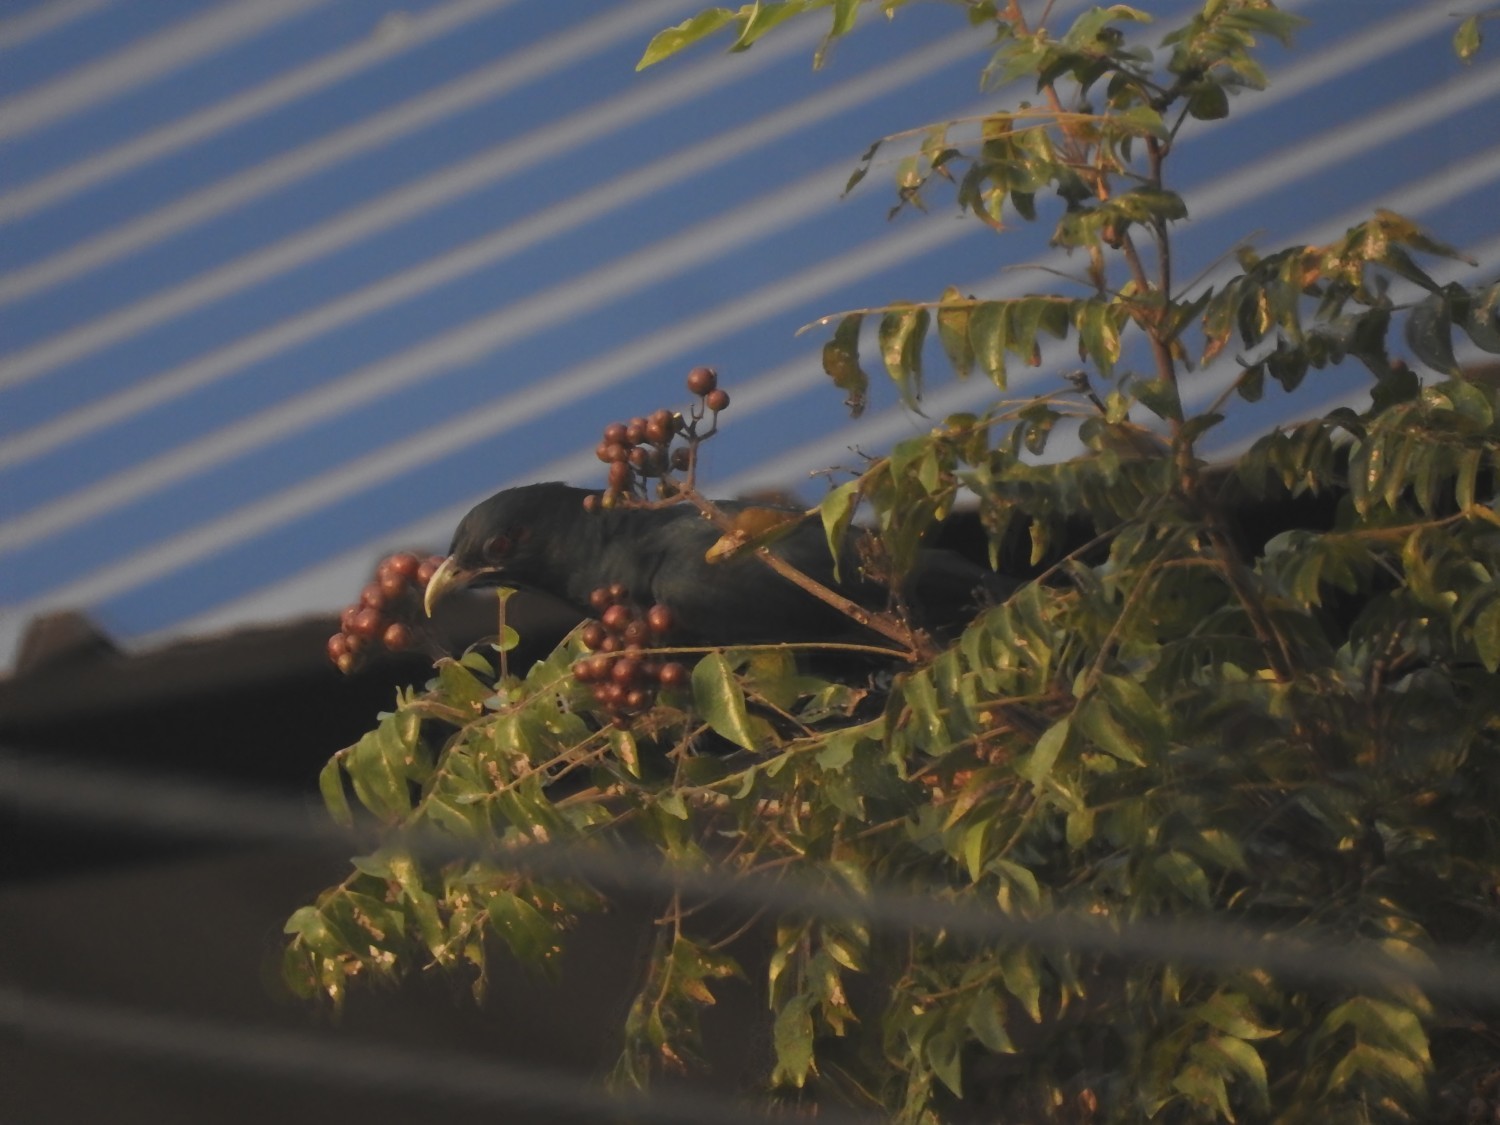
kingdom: Animalia
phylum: Chordata
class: Aves
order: Cuculiformes
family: Cuculidae
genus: Eudynamys
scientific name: Eudynamys scolopaceus
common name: Asian koel
